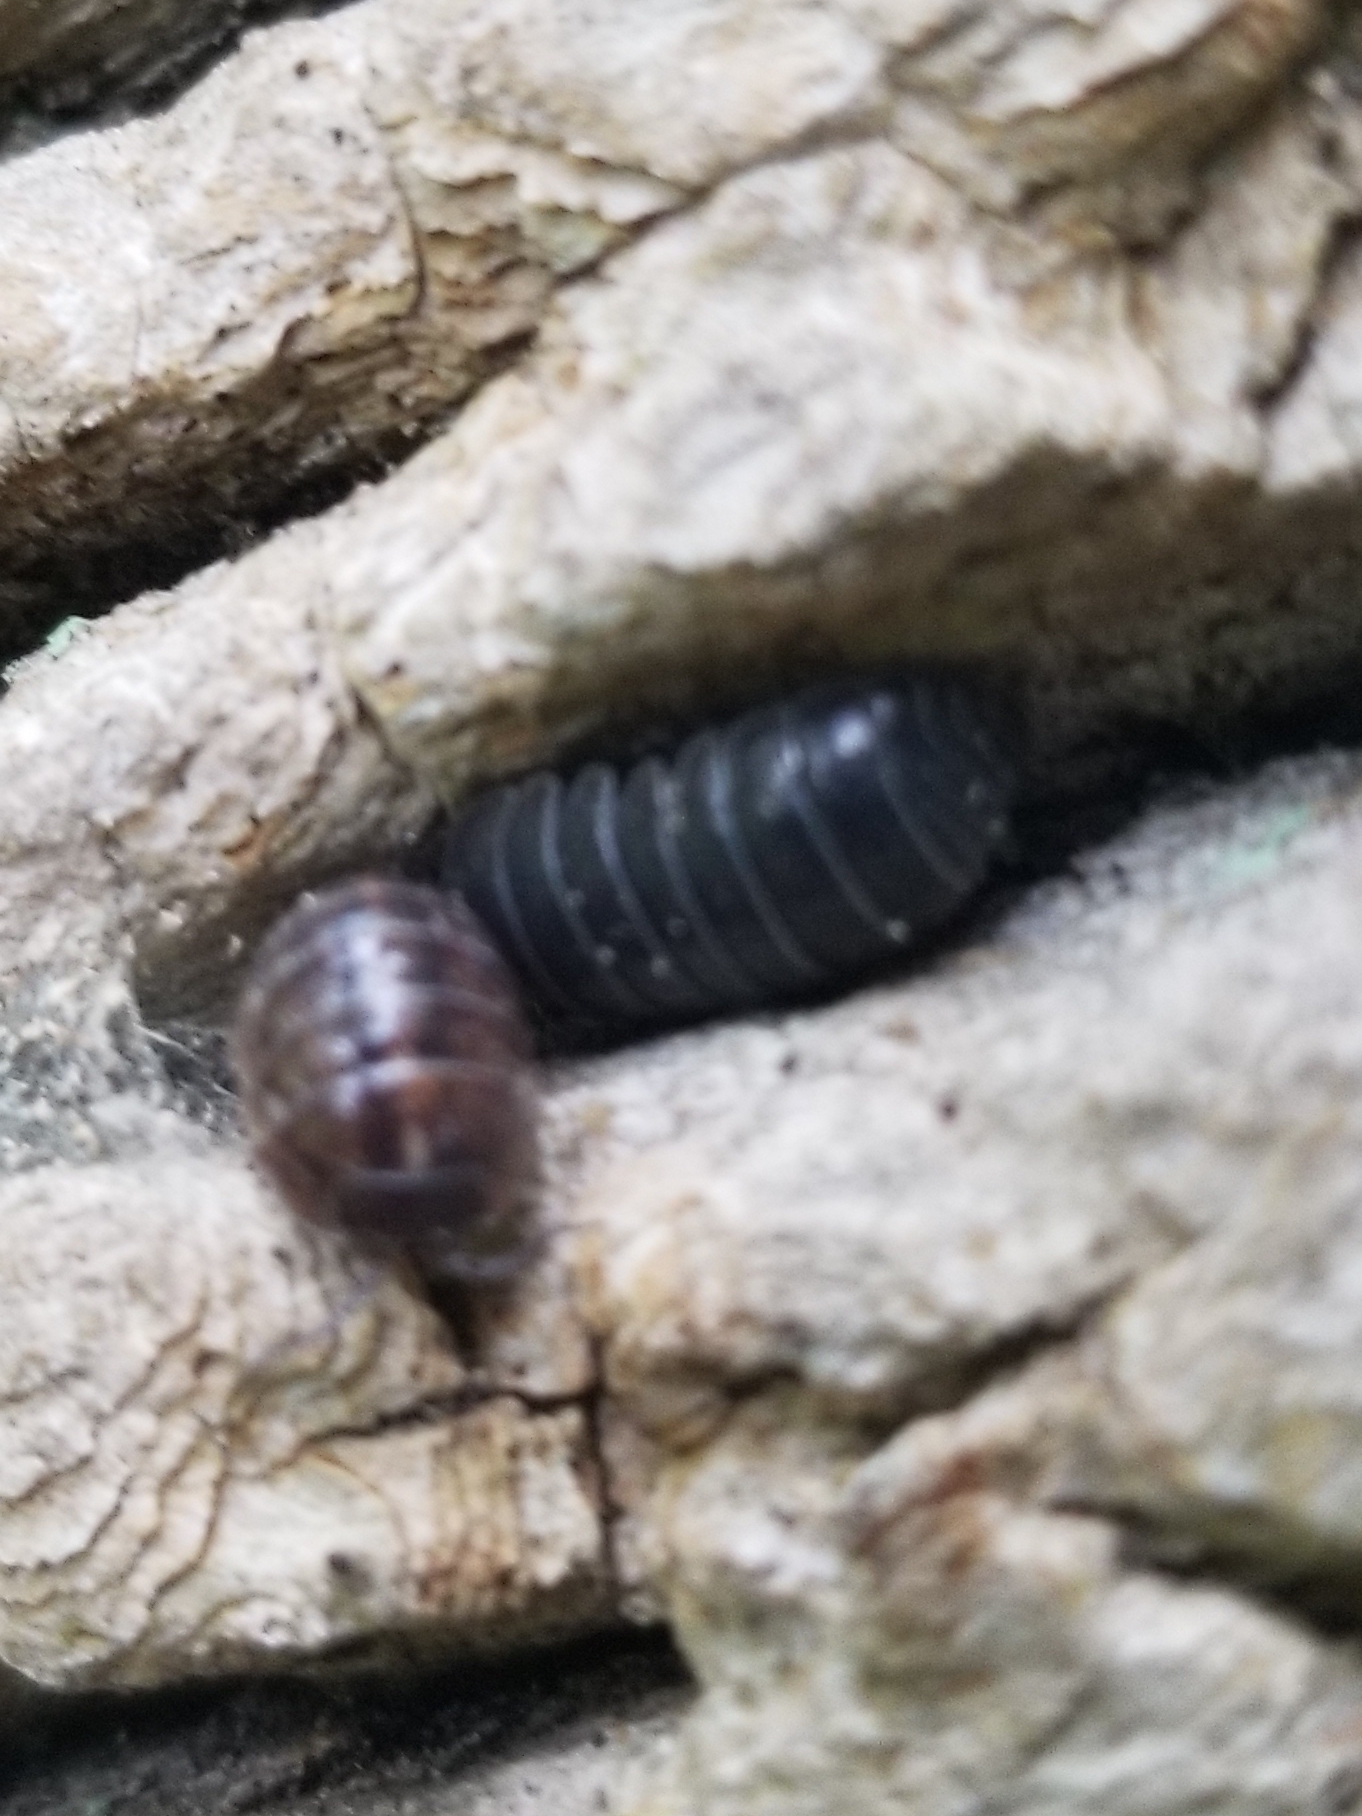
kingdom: Animalia
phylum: Arthropoda
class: Malacostraca
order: Isopoda
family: Armadillidiidae
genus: Armadillidium
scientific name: Armadillidium vulgare
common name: Common pill woodlouse
